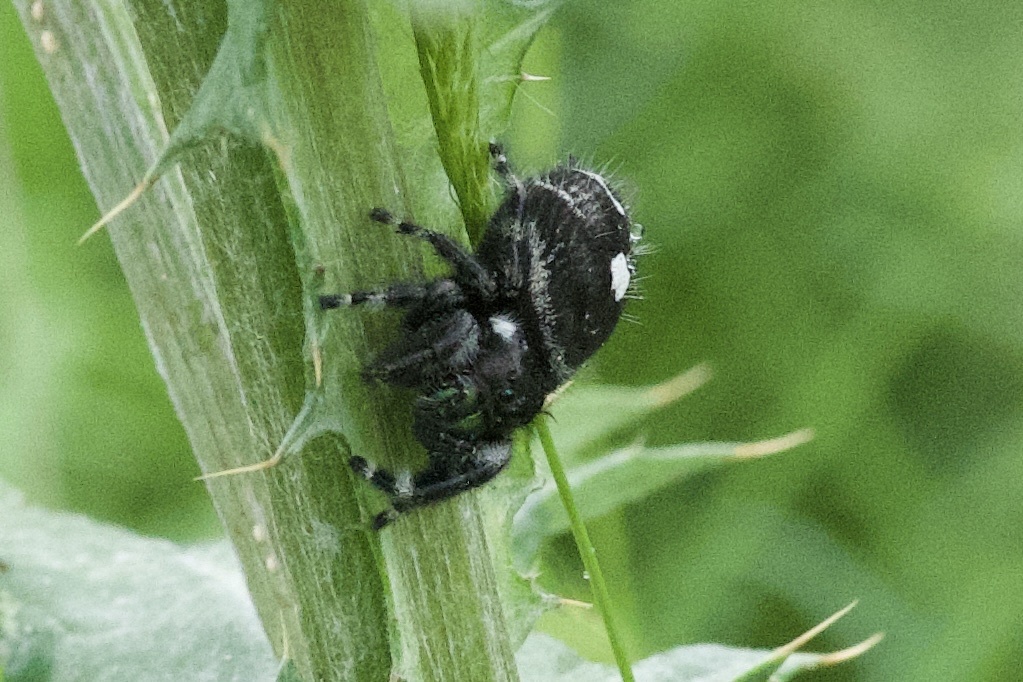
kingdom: Animalia
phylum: Arthropoda
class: Arachnida
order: Araneae
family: Salticidae
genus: Phidippus
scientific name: Phidippus audax
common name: Bold jumper
